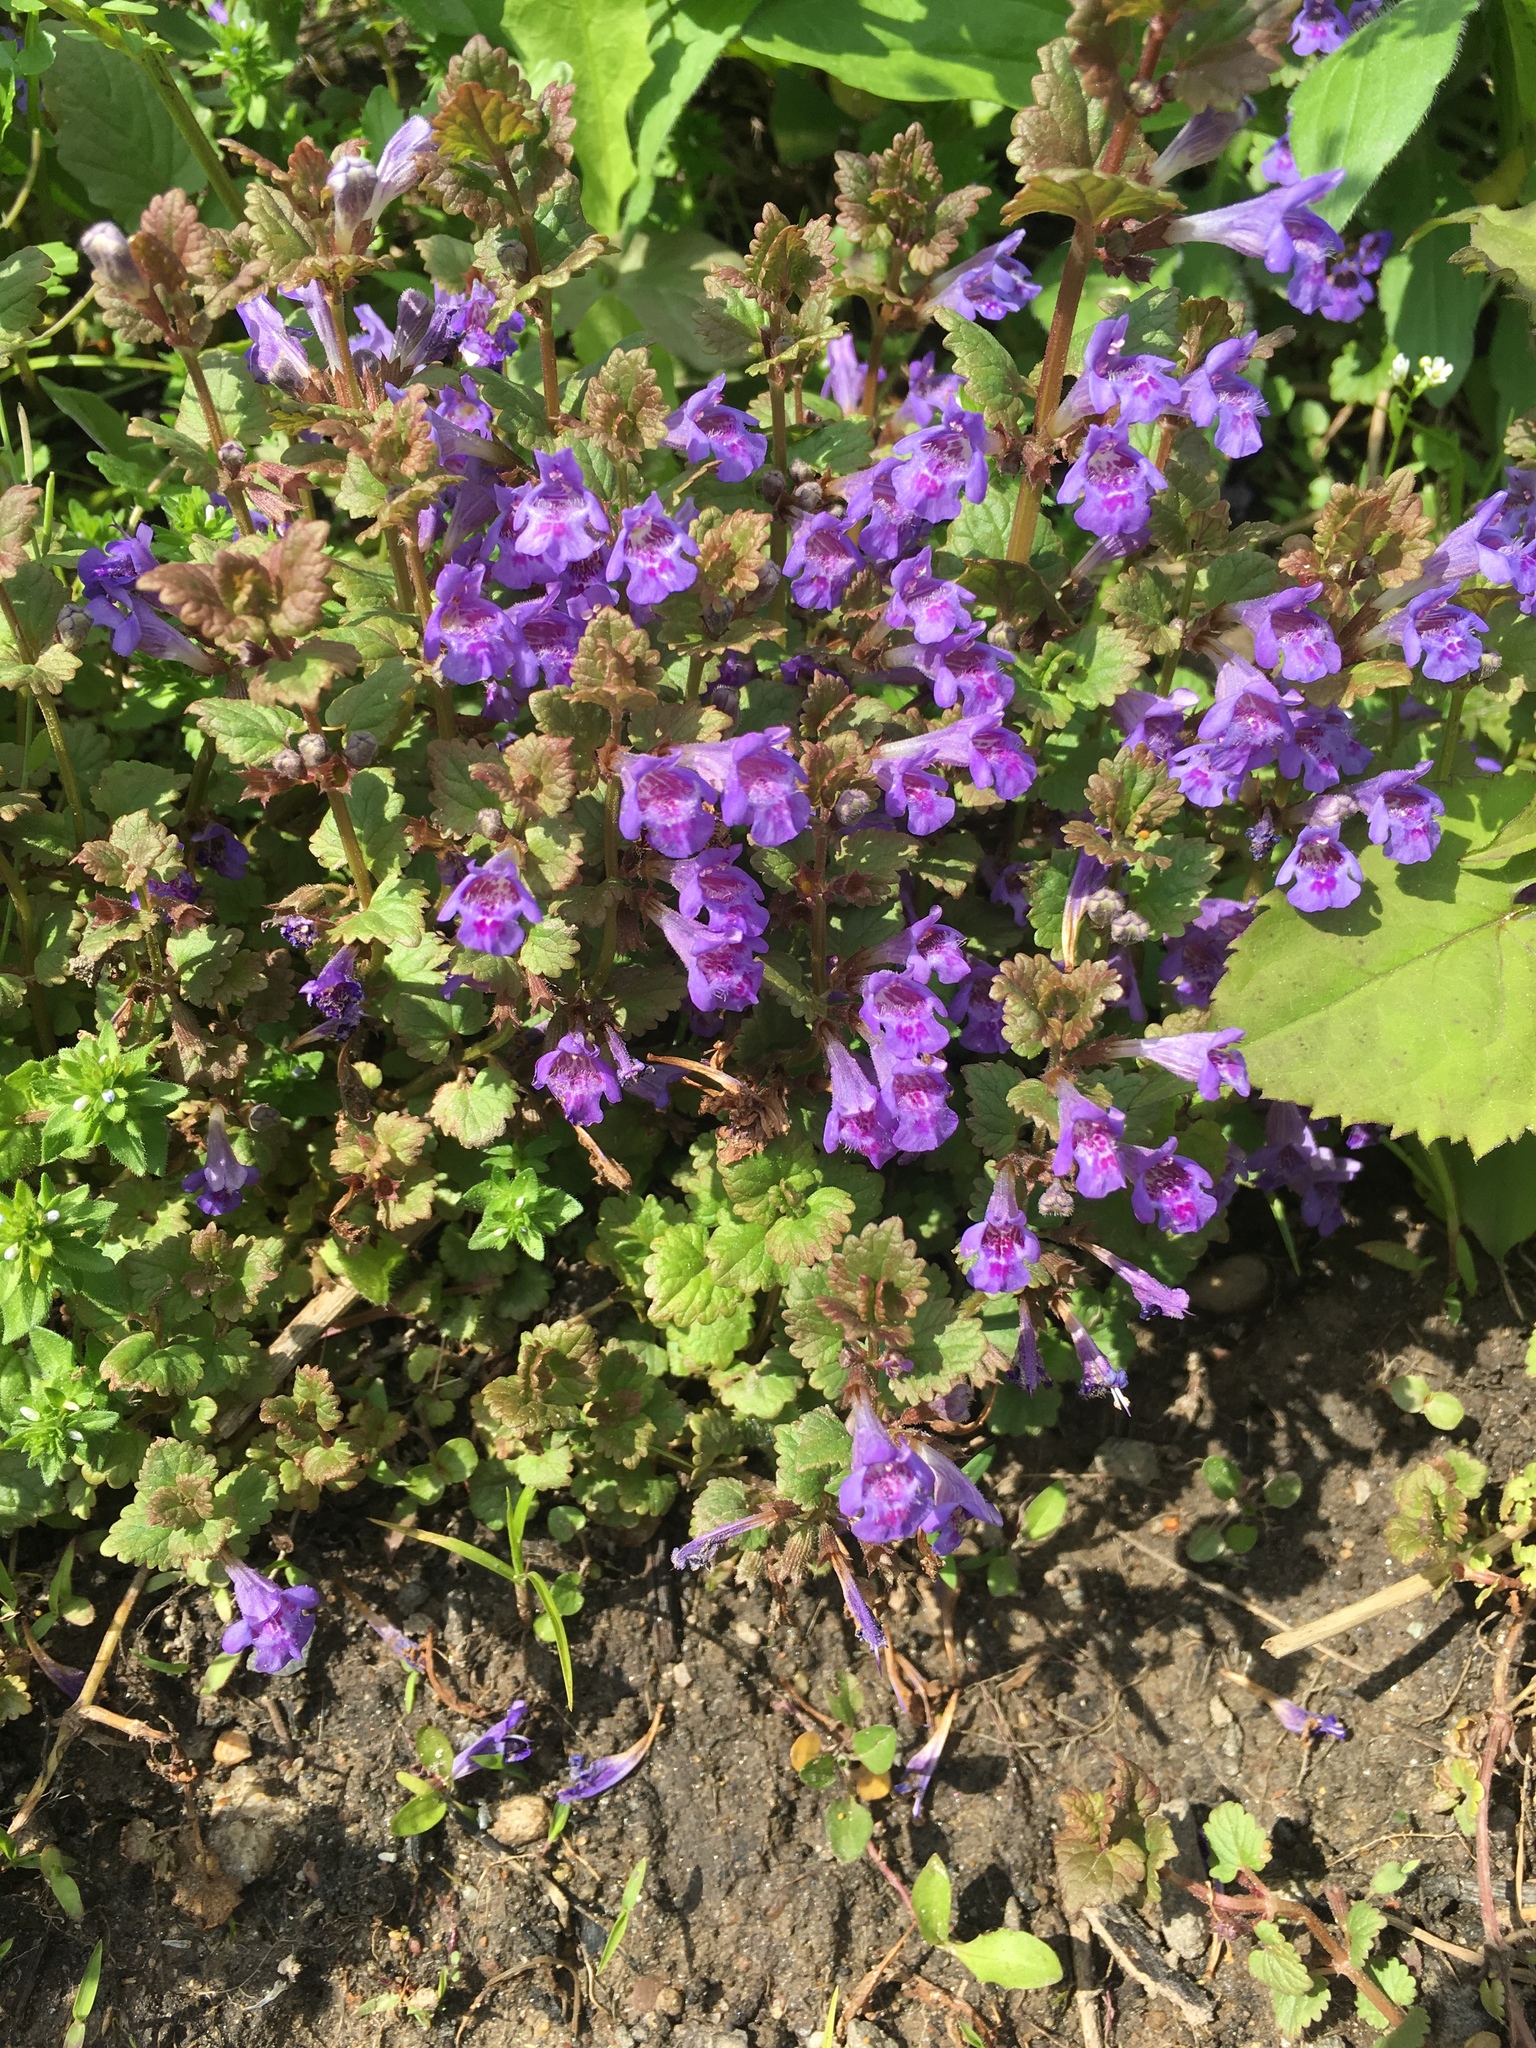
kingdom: Plantae
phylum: Tracheophyta
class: Magnoliopsida
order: Lamiales
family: Lamiaceae
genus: Glechoma
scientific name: Glechoma hederacea
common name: Ground ivy
